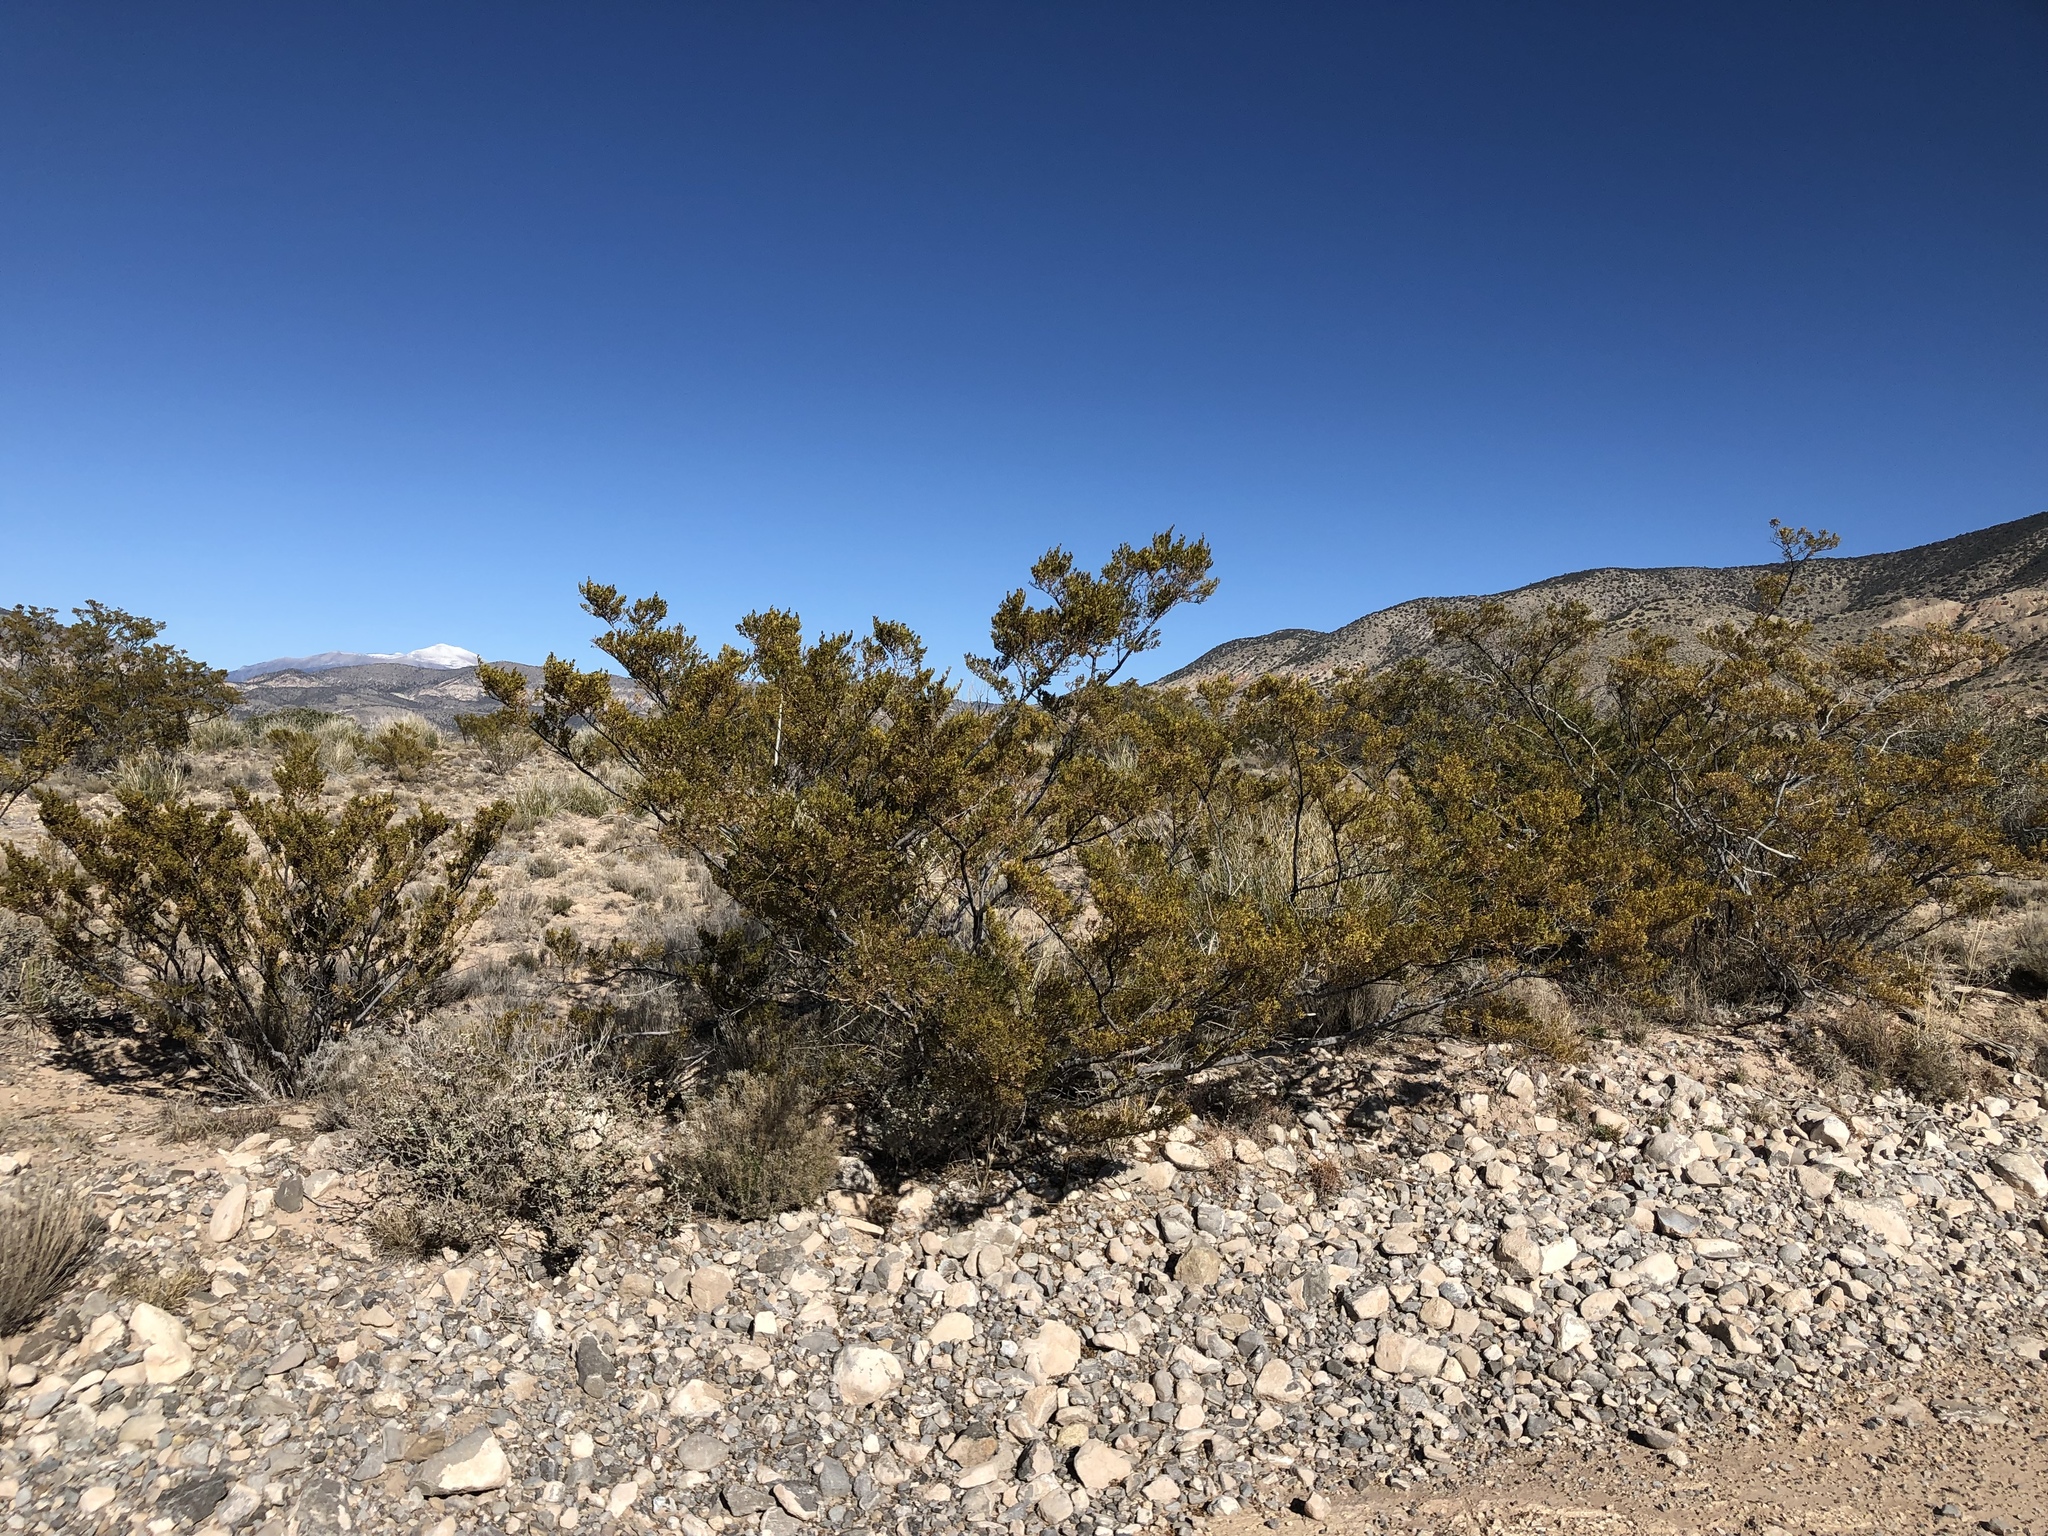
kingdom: Plantae
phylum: Tracheophyta
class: Magnoliopsida
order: Zygophyllales
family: Zygophyllaceae
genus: Larrea
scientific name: Larrea tridentata
